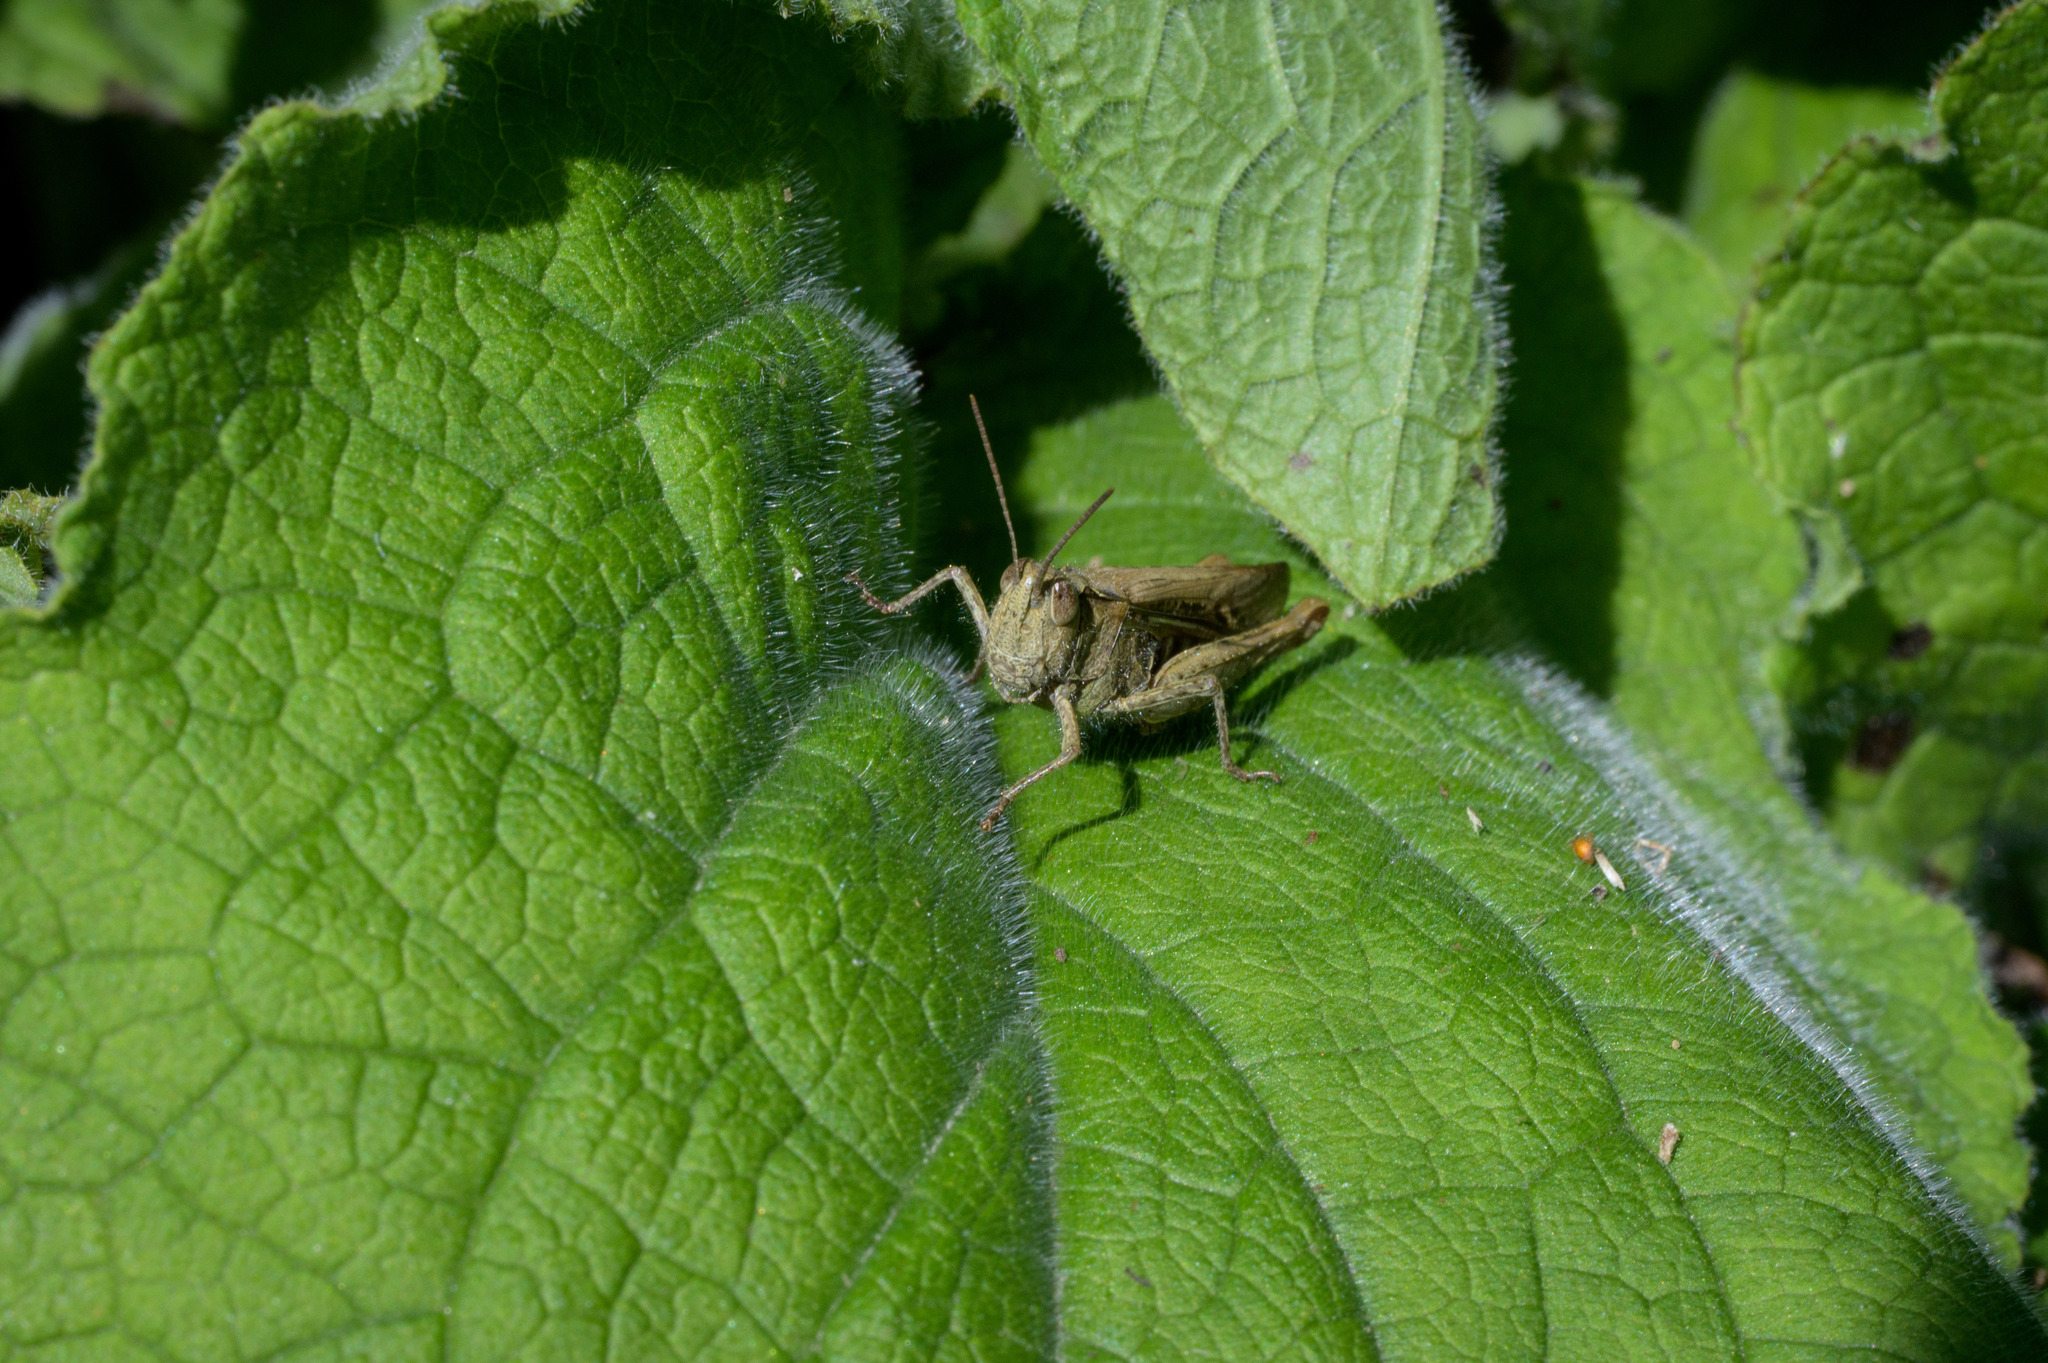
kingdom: Animalia
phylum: Arthropoda
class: Insecta
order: Orthoptera
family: Acrididae
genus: Chorthippus
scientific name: Chorthippus brunneus
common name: Field grasshopper
